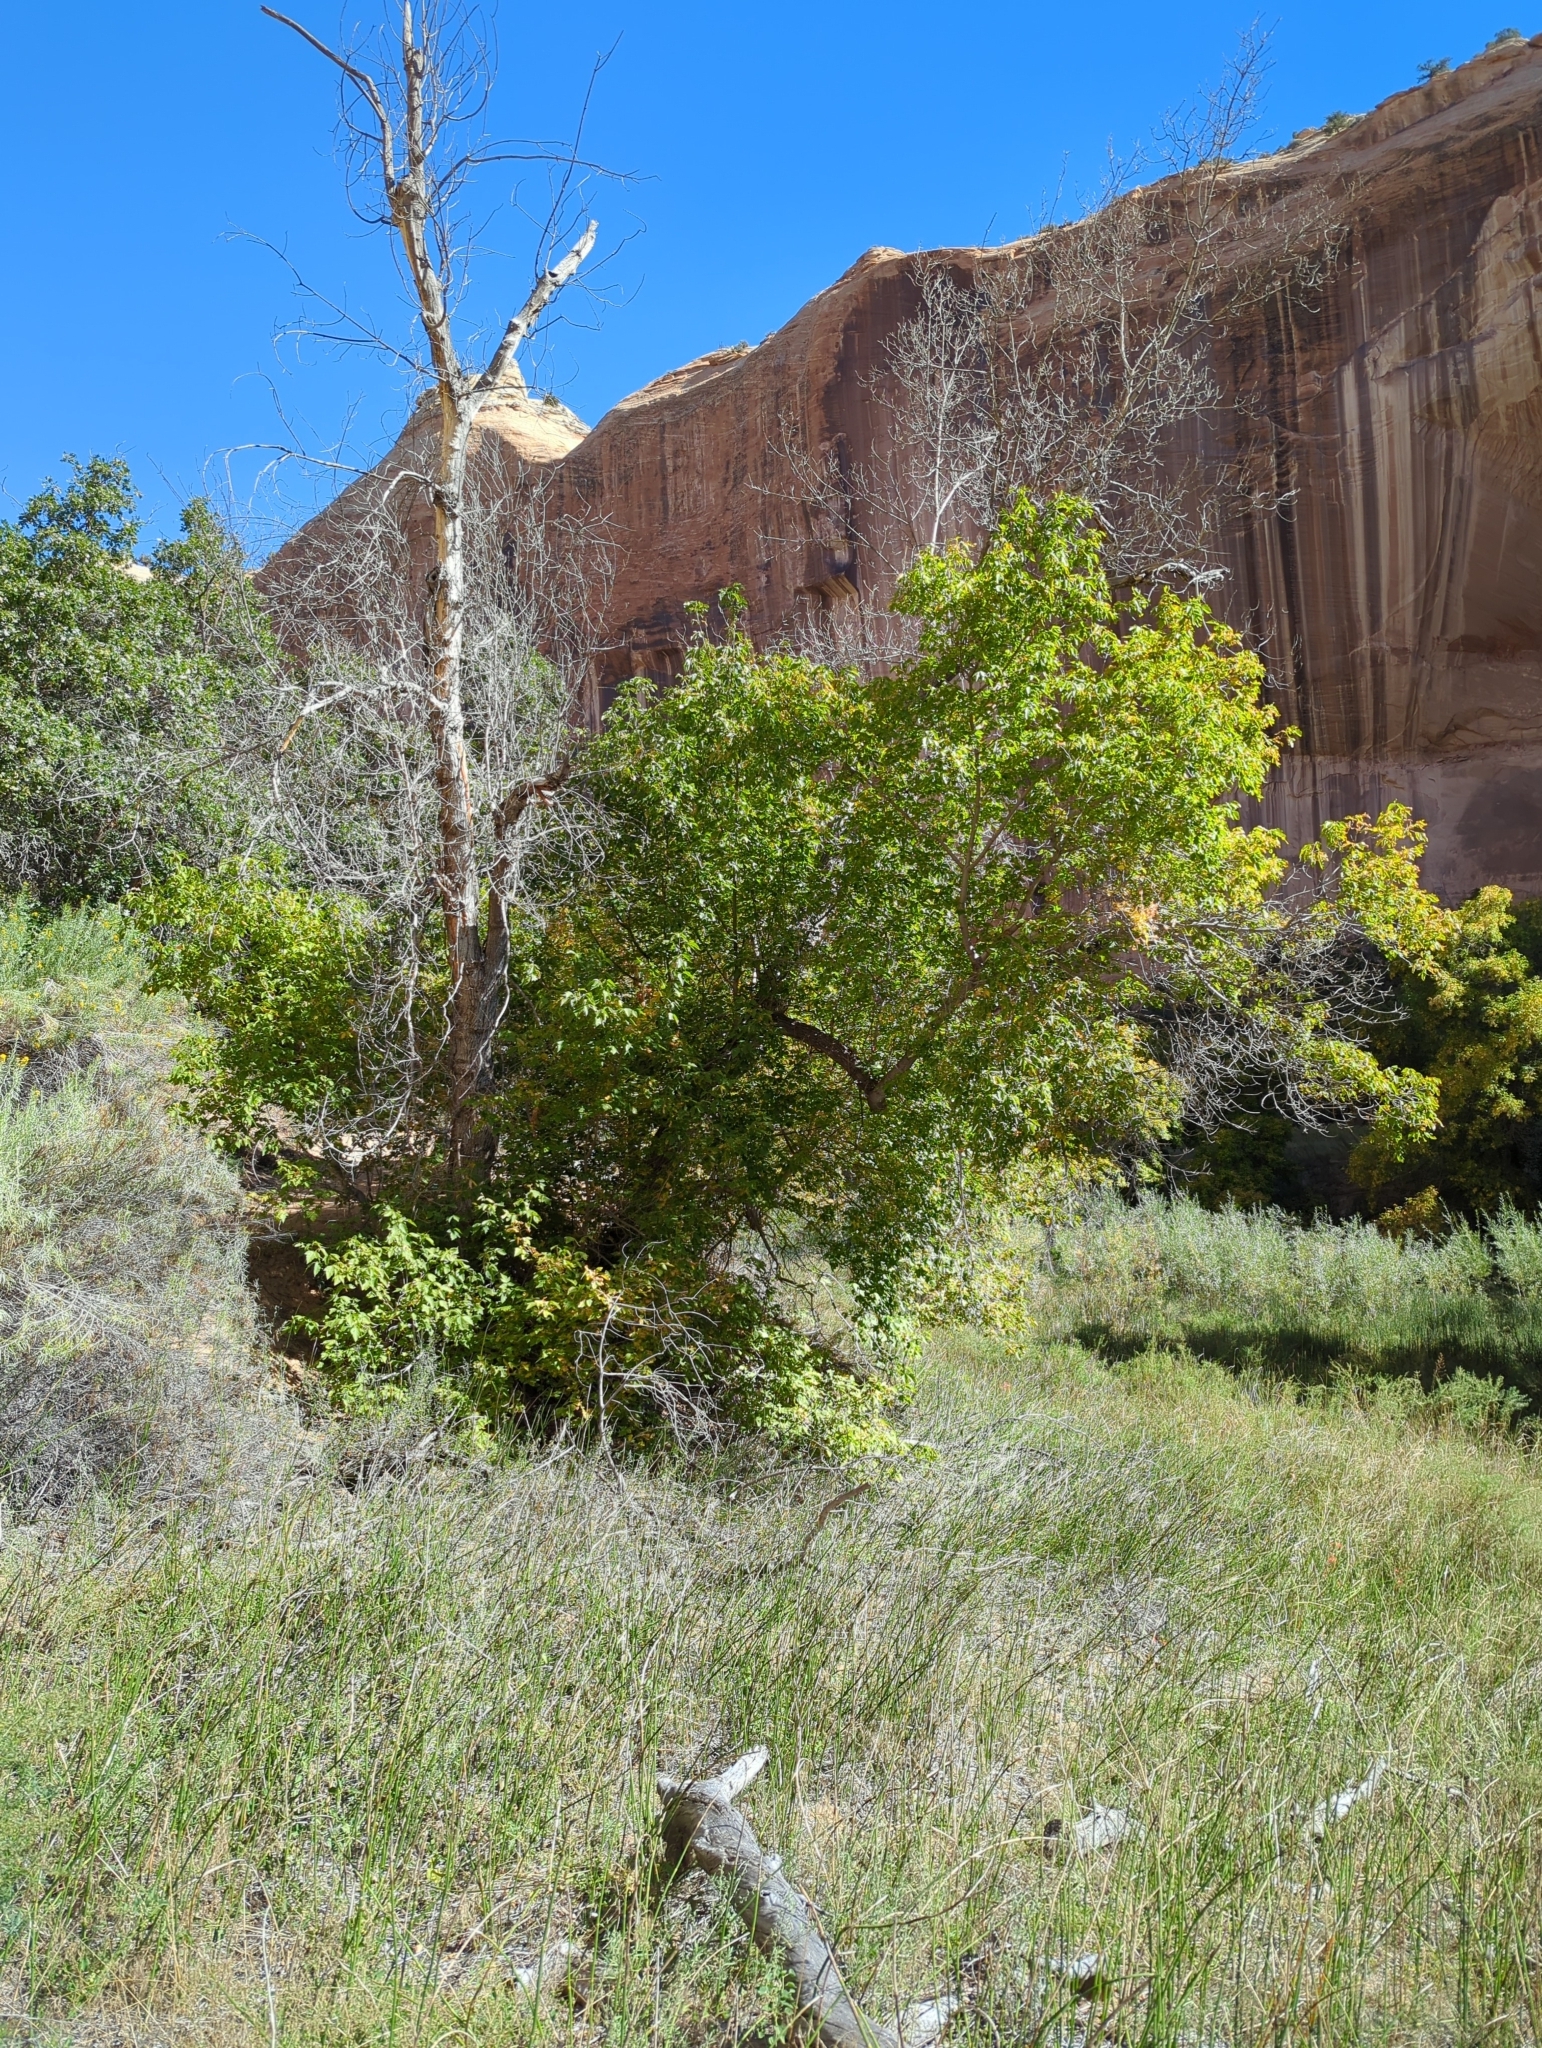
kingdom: Plantae
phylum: Tracheophyta
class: Magnoliopsida
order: Sapindales
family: Sapindaceae
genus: Acer
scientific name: Acer negundo
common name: Ashleaf maple
